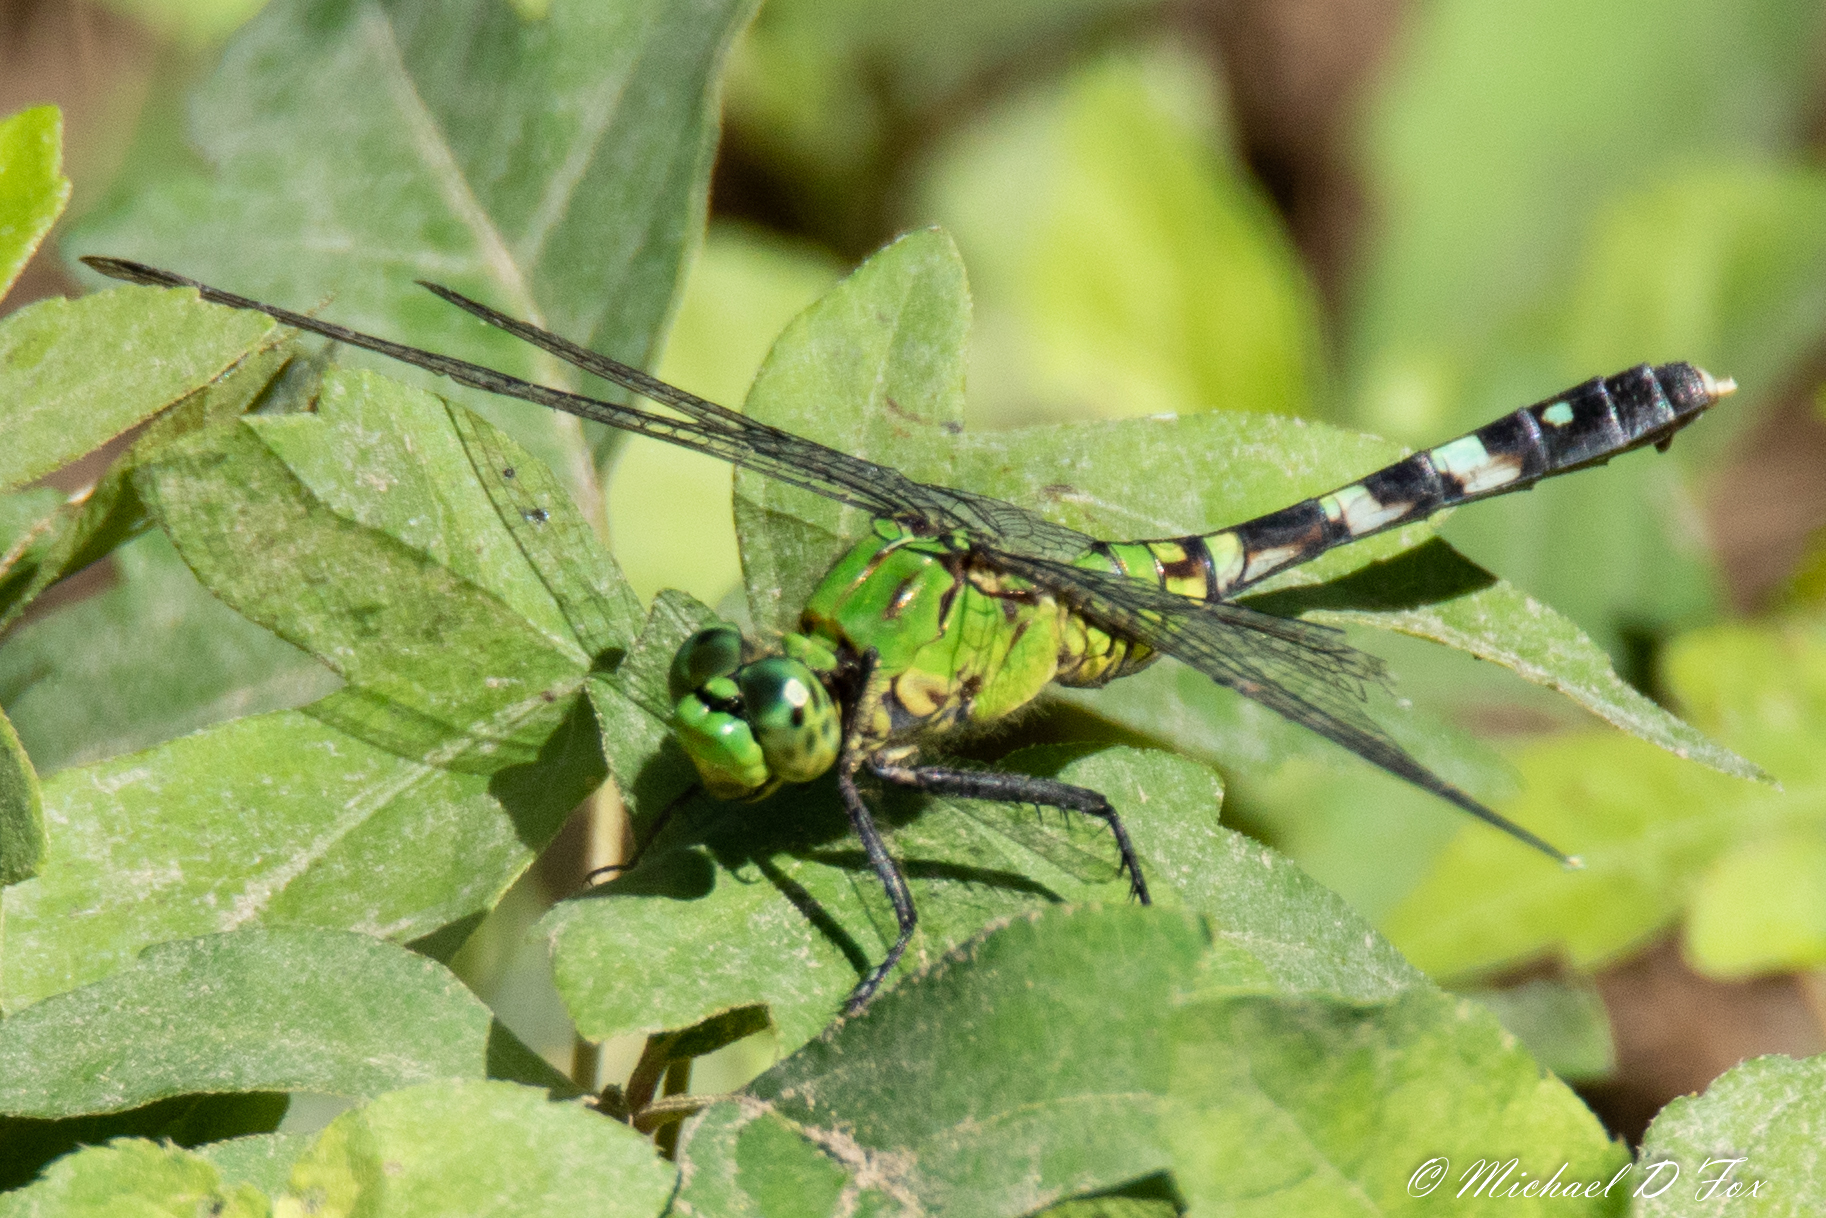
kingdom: Animalia
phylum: Arthropoda
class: Insecta
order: Odonata
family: Libellulidae
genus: Erythemis
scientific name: Erythemis simplicicollis
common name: Eastern pondhawk
